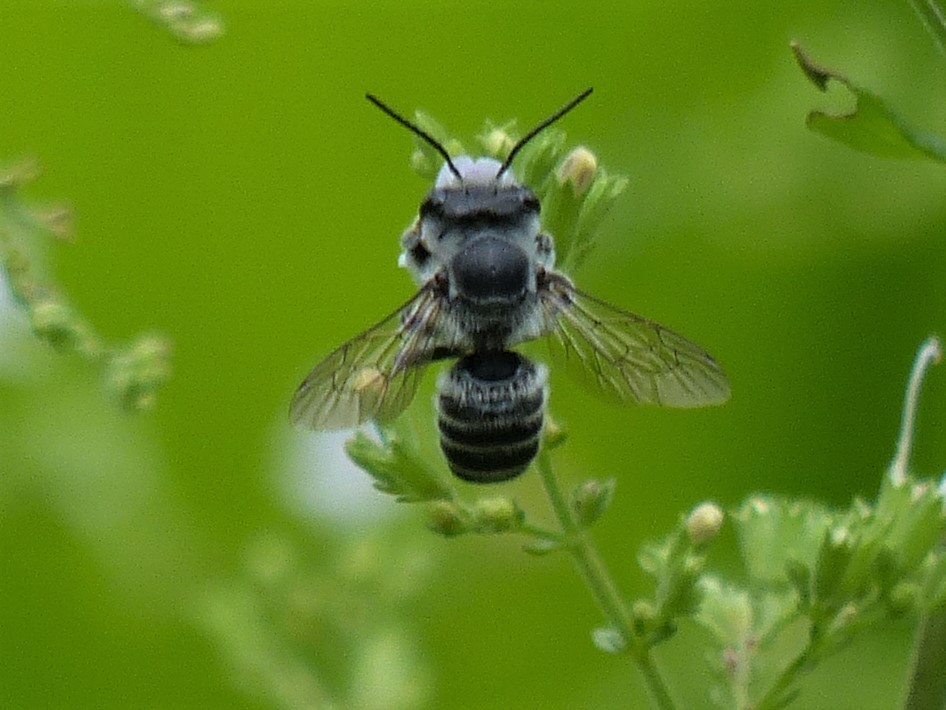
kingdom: Animalia
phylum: Arthropoda
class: Insecta
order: Hymenoptera
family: Megachilidae
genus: Megachile
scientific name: Megachile
